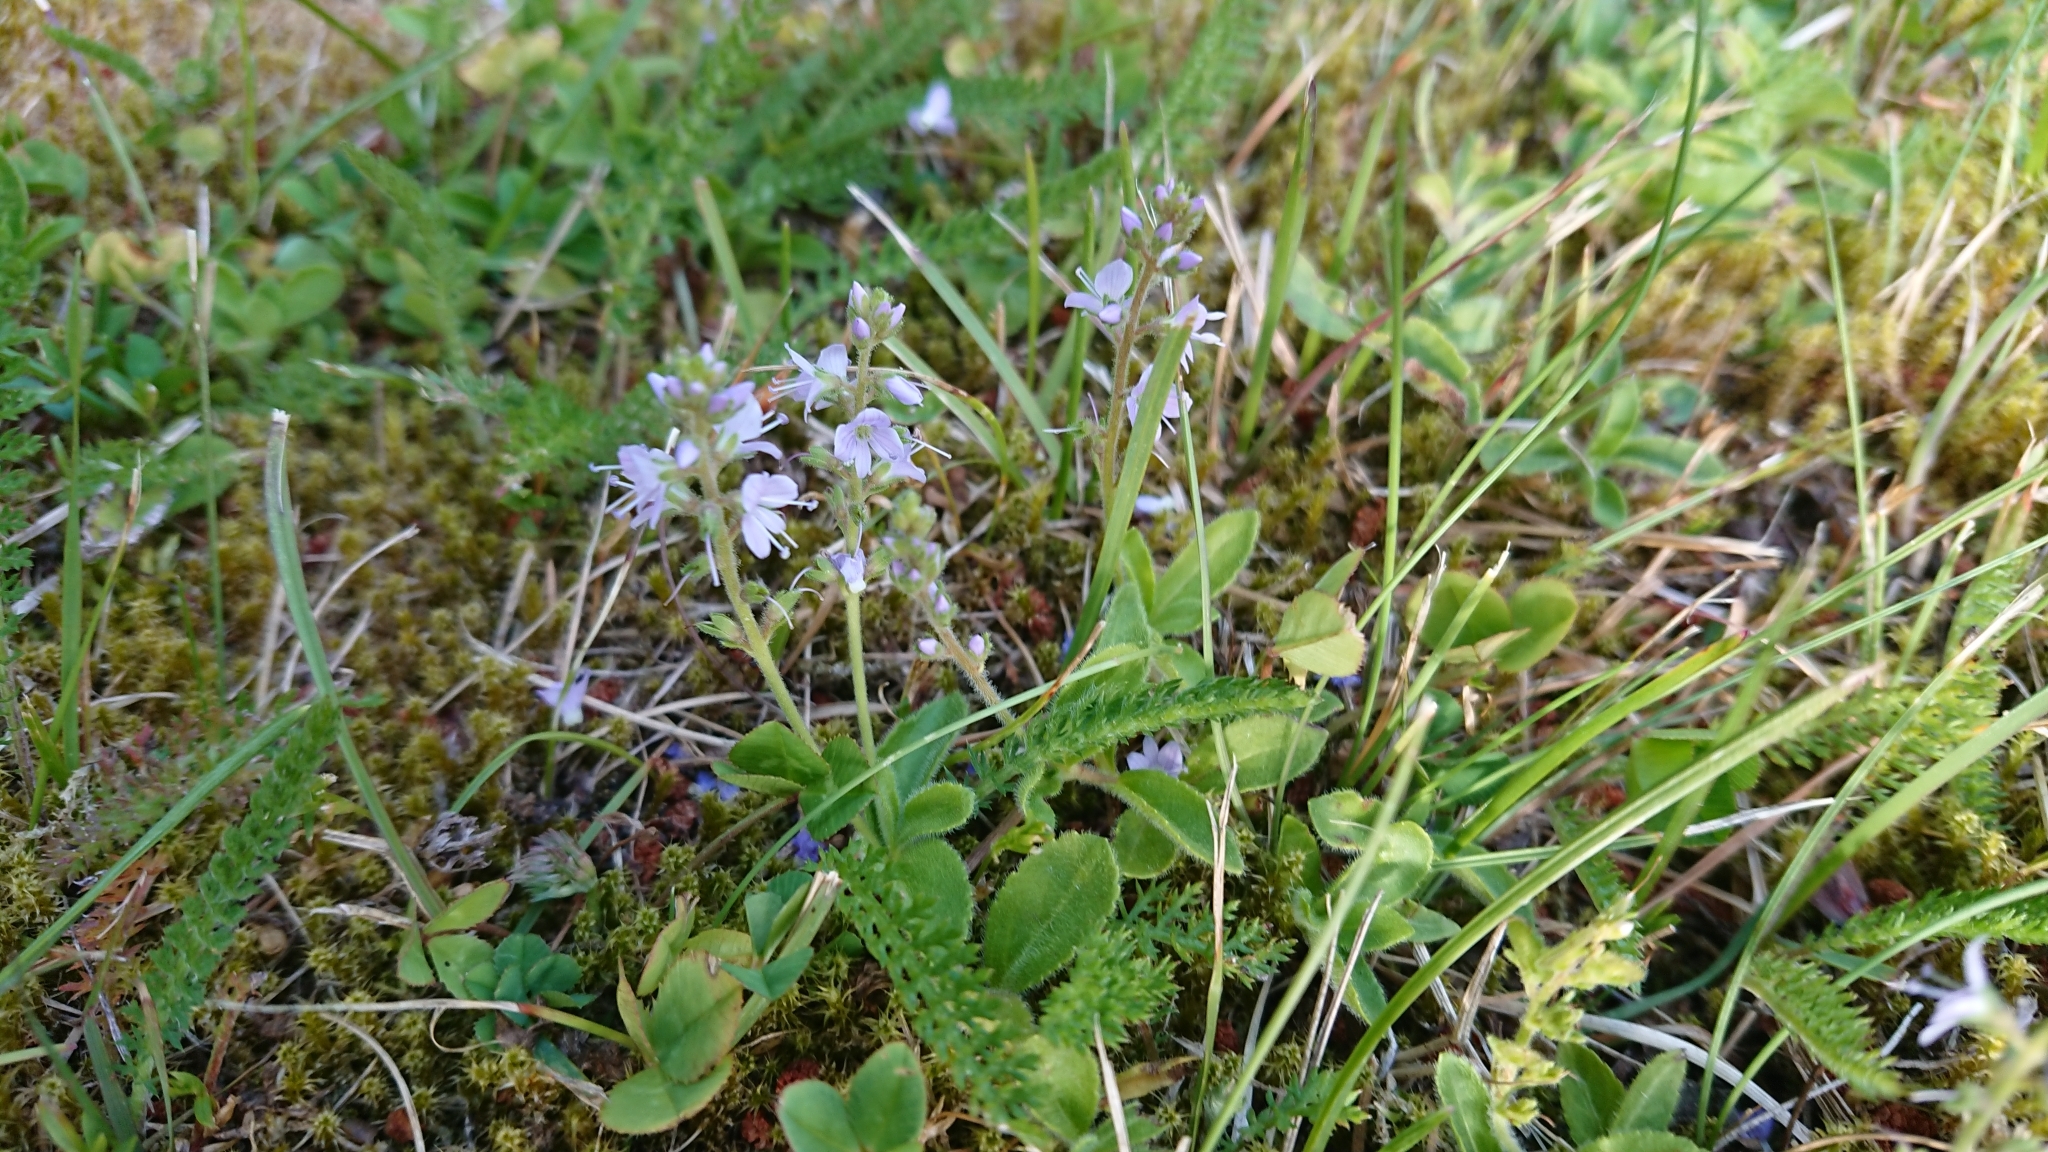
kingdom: Plantae
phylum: Tracheophyta
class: Magnoliopsida
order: Lamiales
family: Plantaginaceae
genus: Veronica
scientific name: Veronica officinalis
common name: Common speedwell
